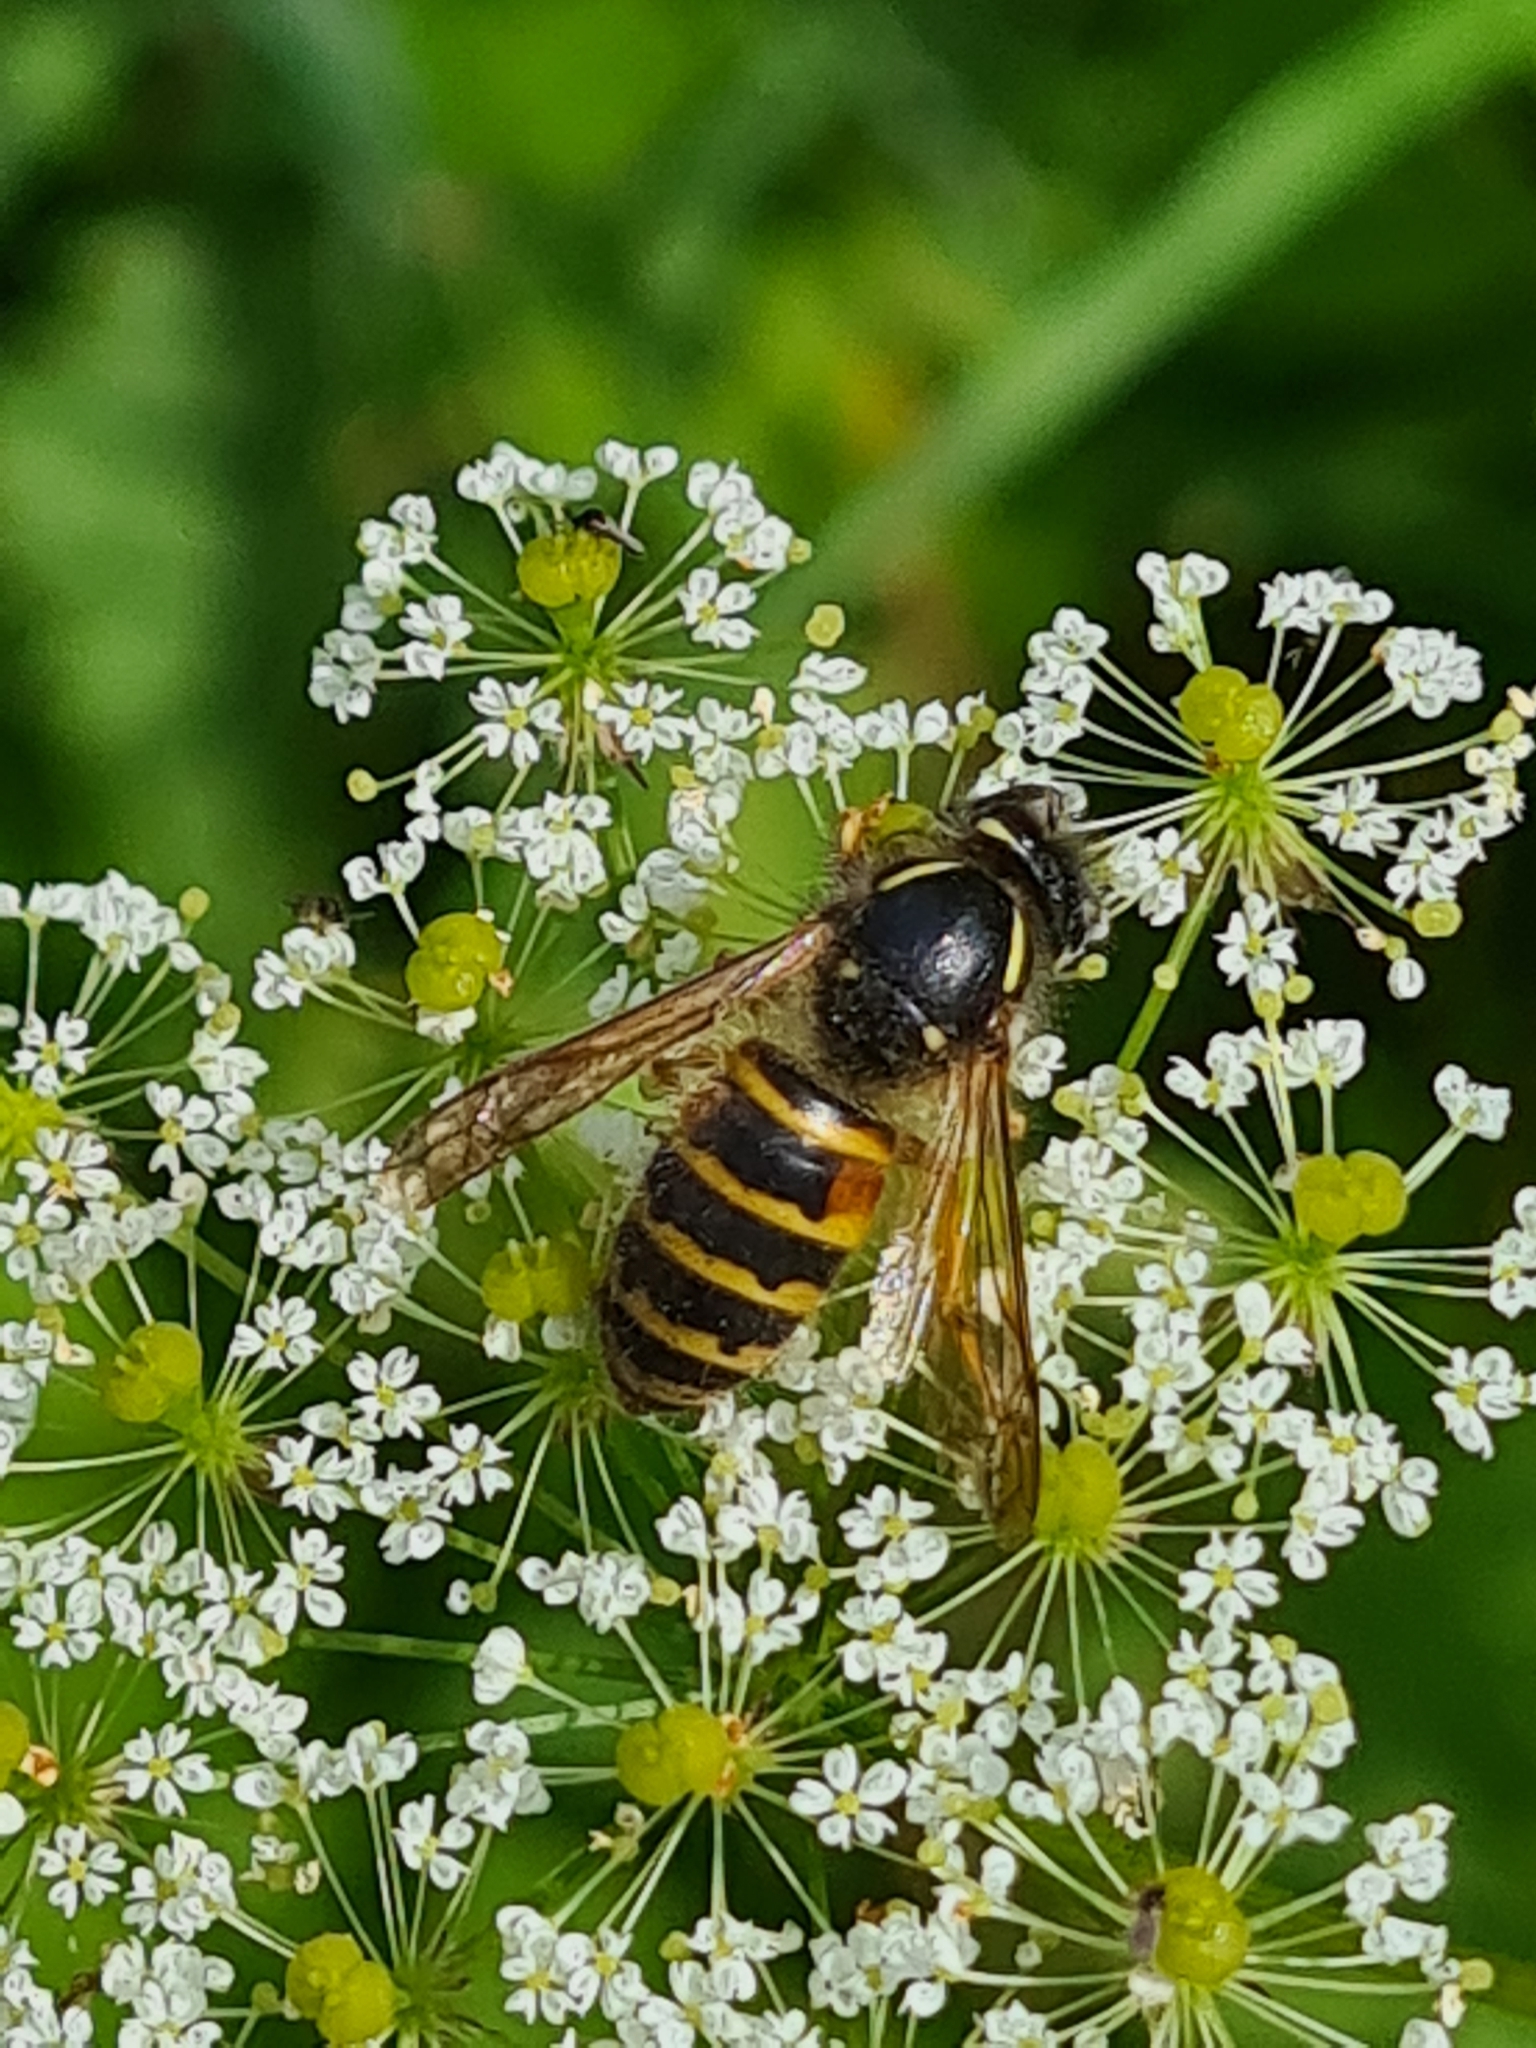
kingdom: Animalia
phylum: Arthropoda
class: Insecta
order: Hymenoptera
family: Vespidae
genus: Vespula
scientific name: Vespula rufa
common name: Red wasp
